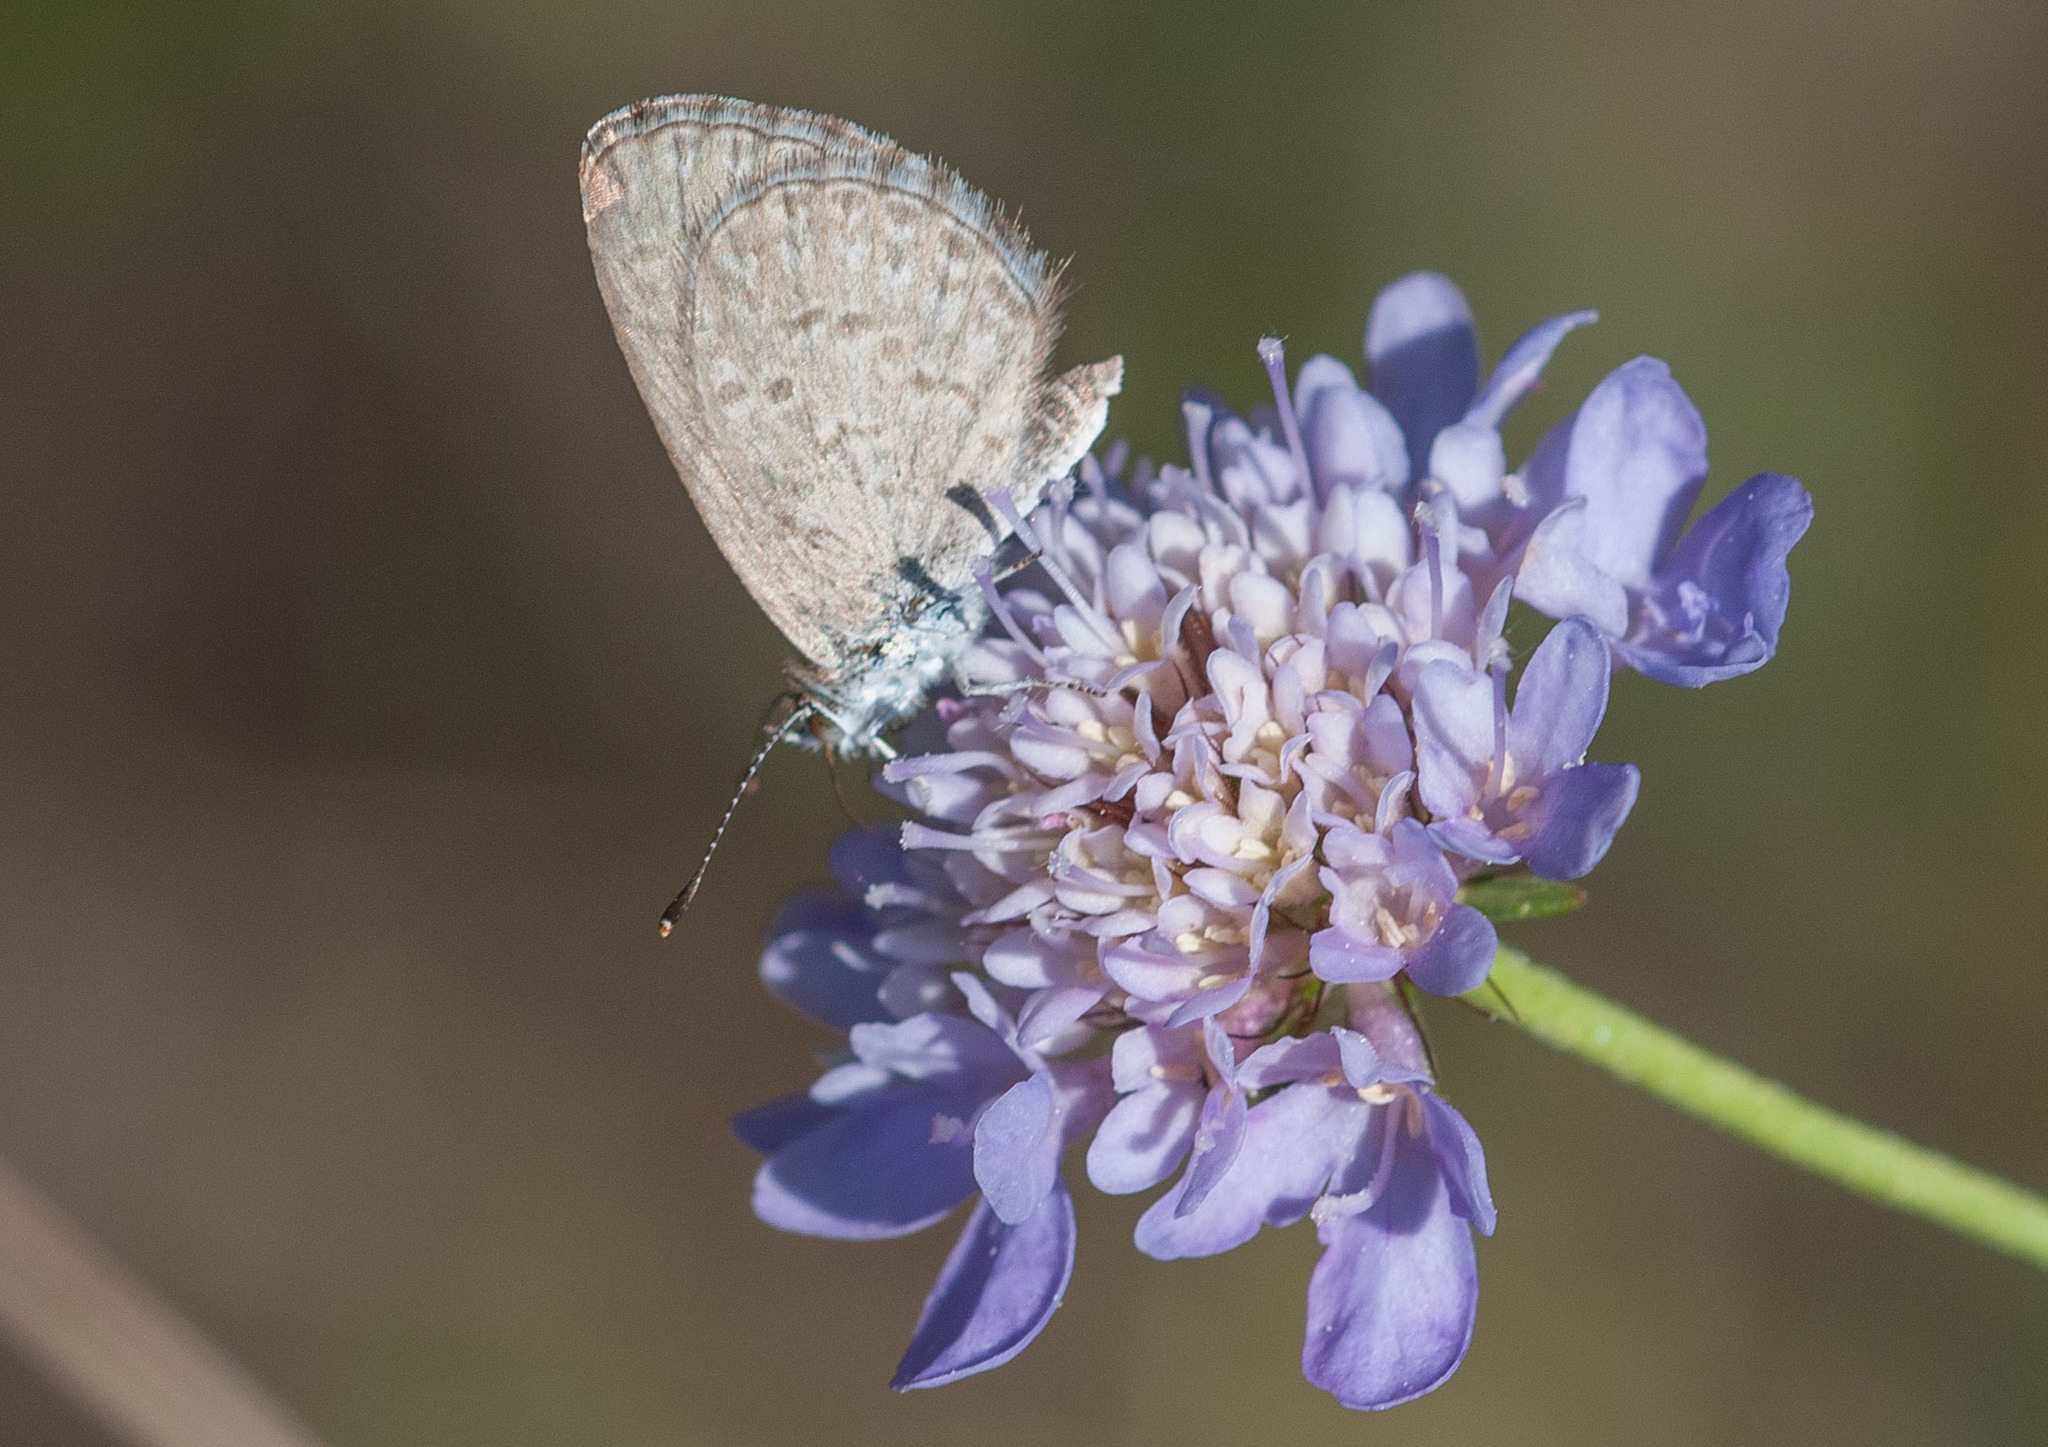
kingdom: Animalia
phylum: Arthropoda
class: Insecta
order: Lepidoptera
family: Lycaenidae
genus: Zizina
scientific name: Zizina labradus
